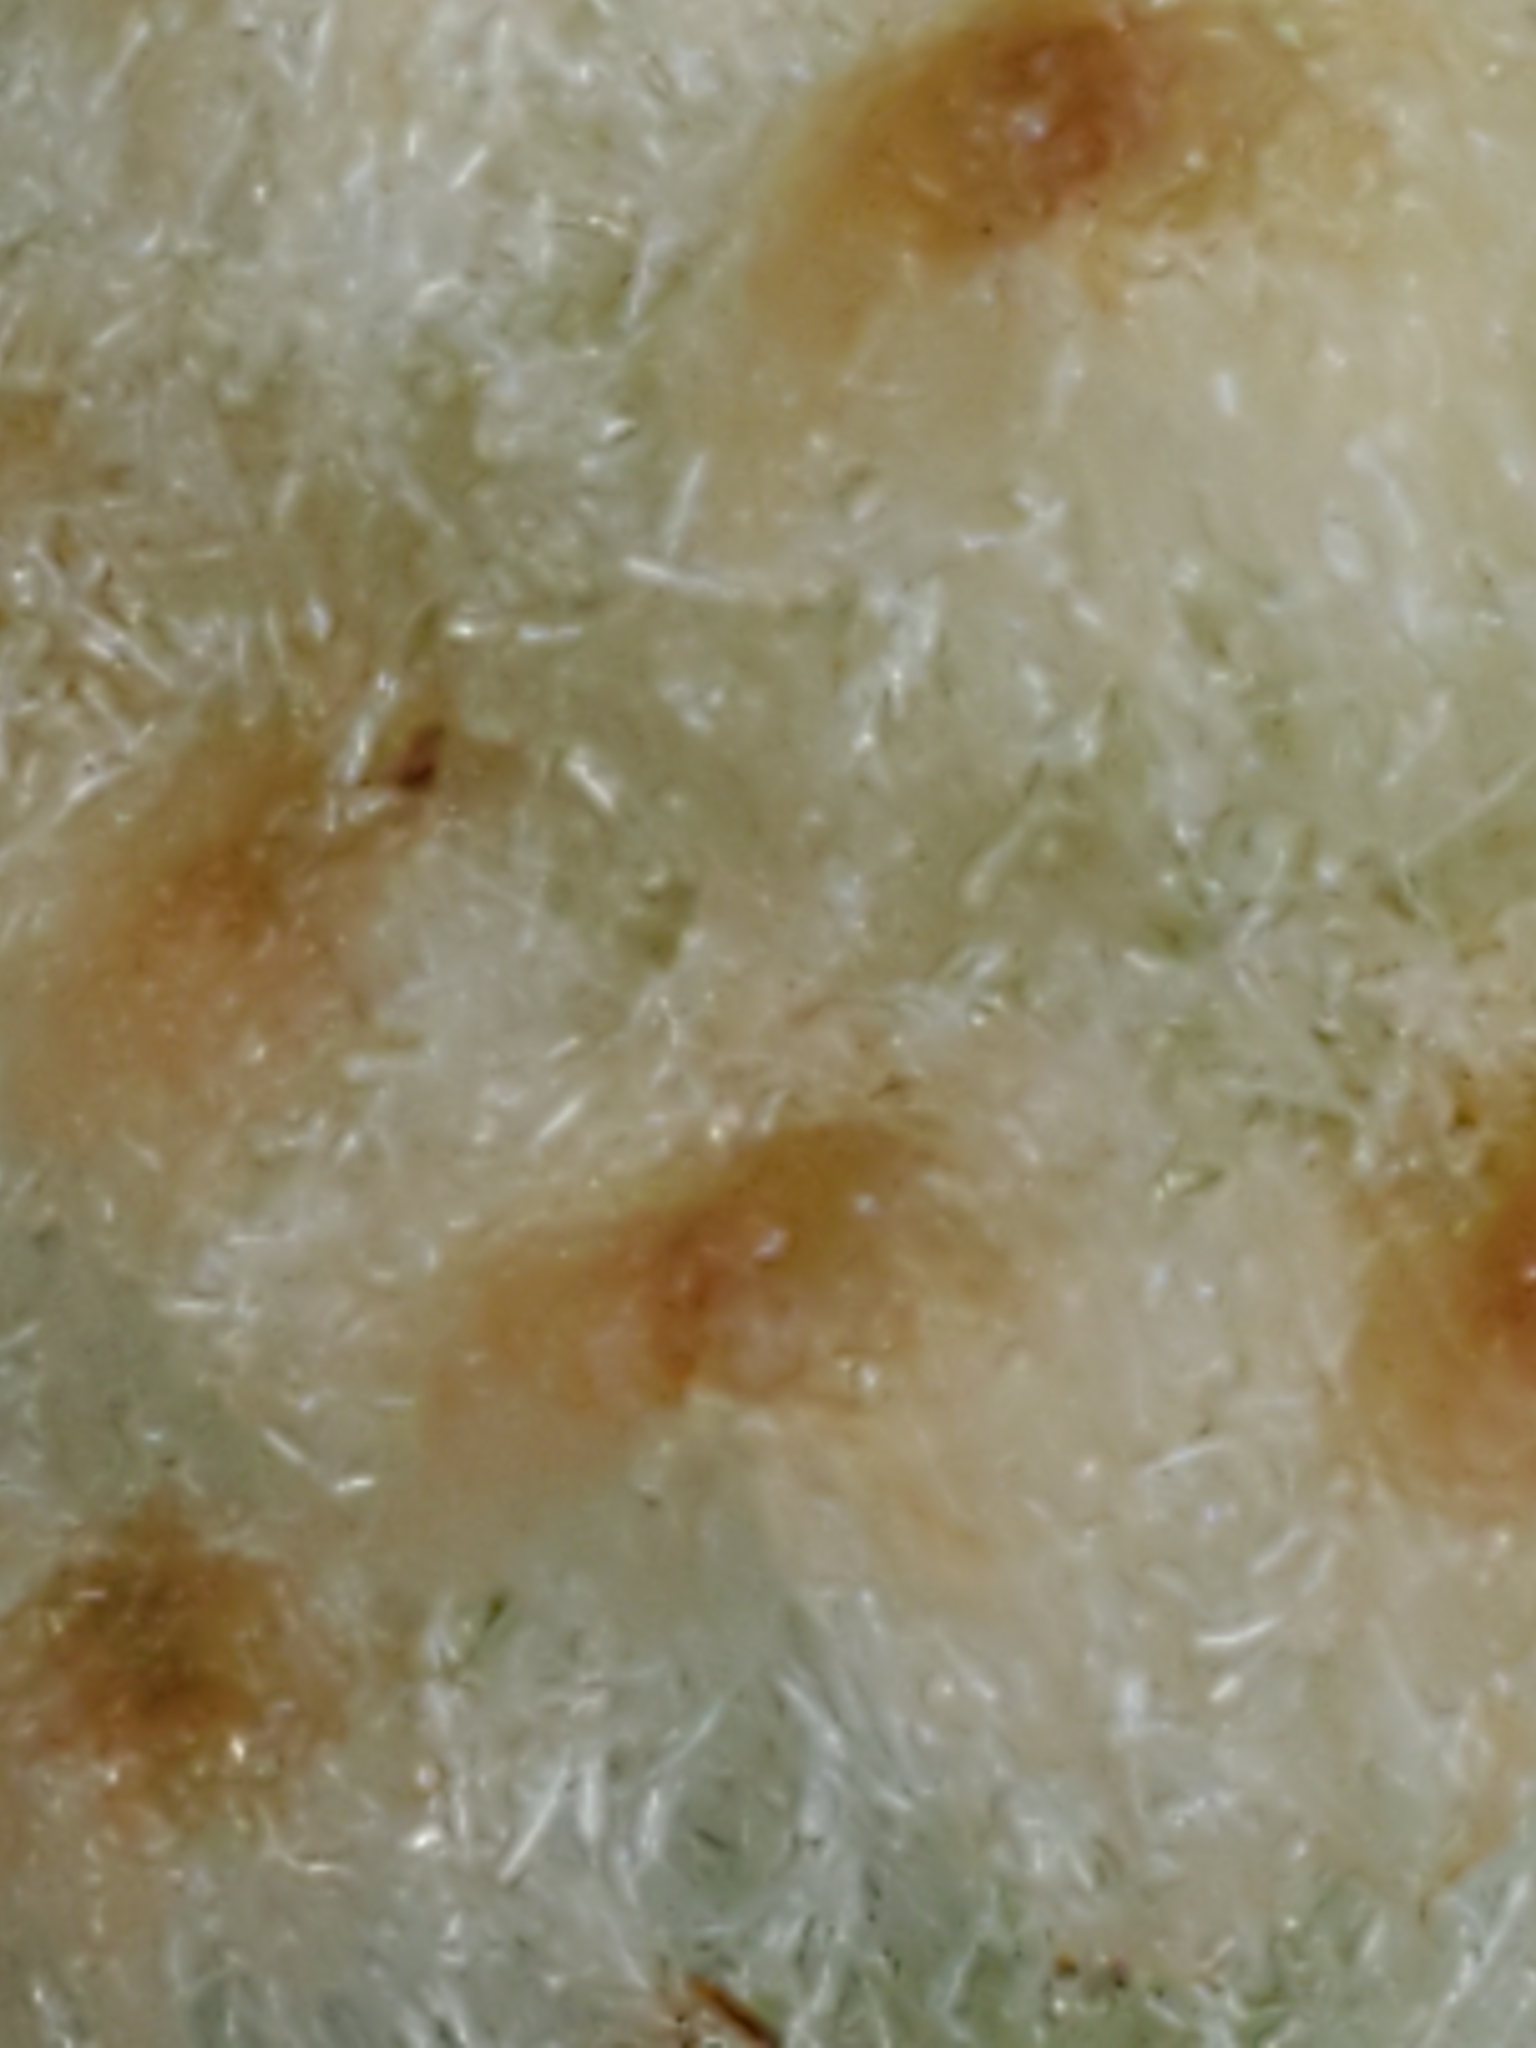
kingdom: Animalia
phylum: Arthropoda
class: Insecta
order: Hymenoptera
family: Cynipidae
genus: Callirhytis
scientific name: Callirhytis
